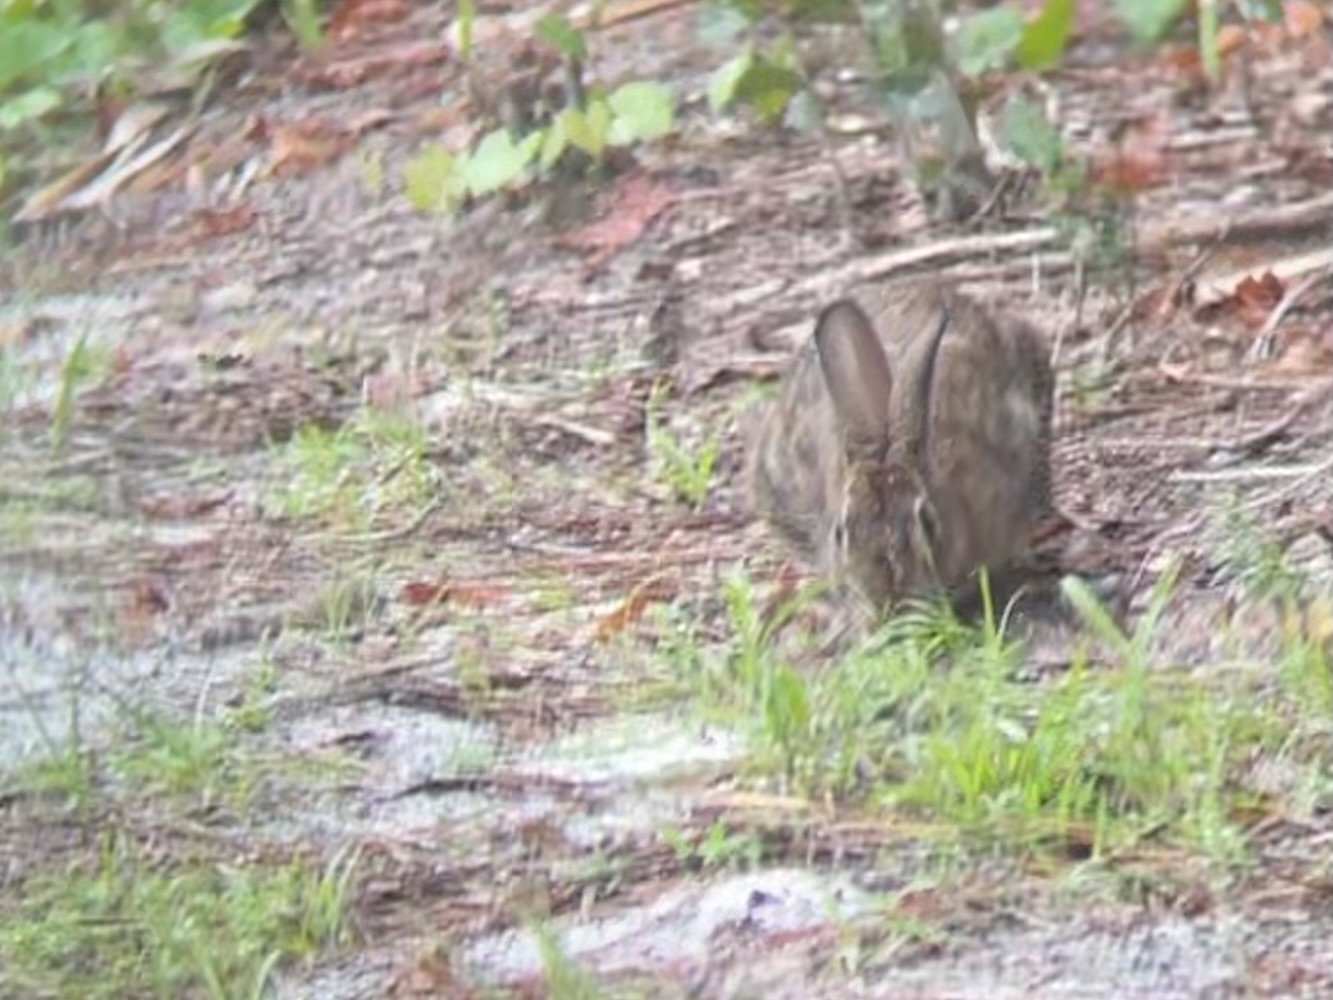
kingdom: Animalia
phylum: Chordata
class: Mammalia
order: Lagomorpha
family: Leporidae
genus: Sylvilagus
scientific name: Sylvilagus floridanus
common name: Eastern cottontail
